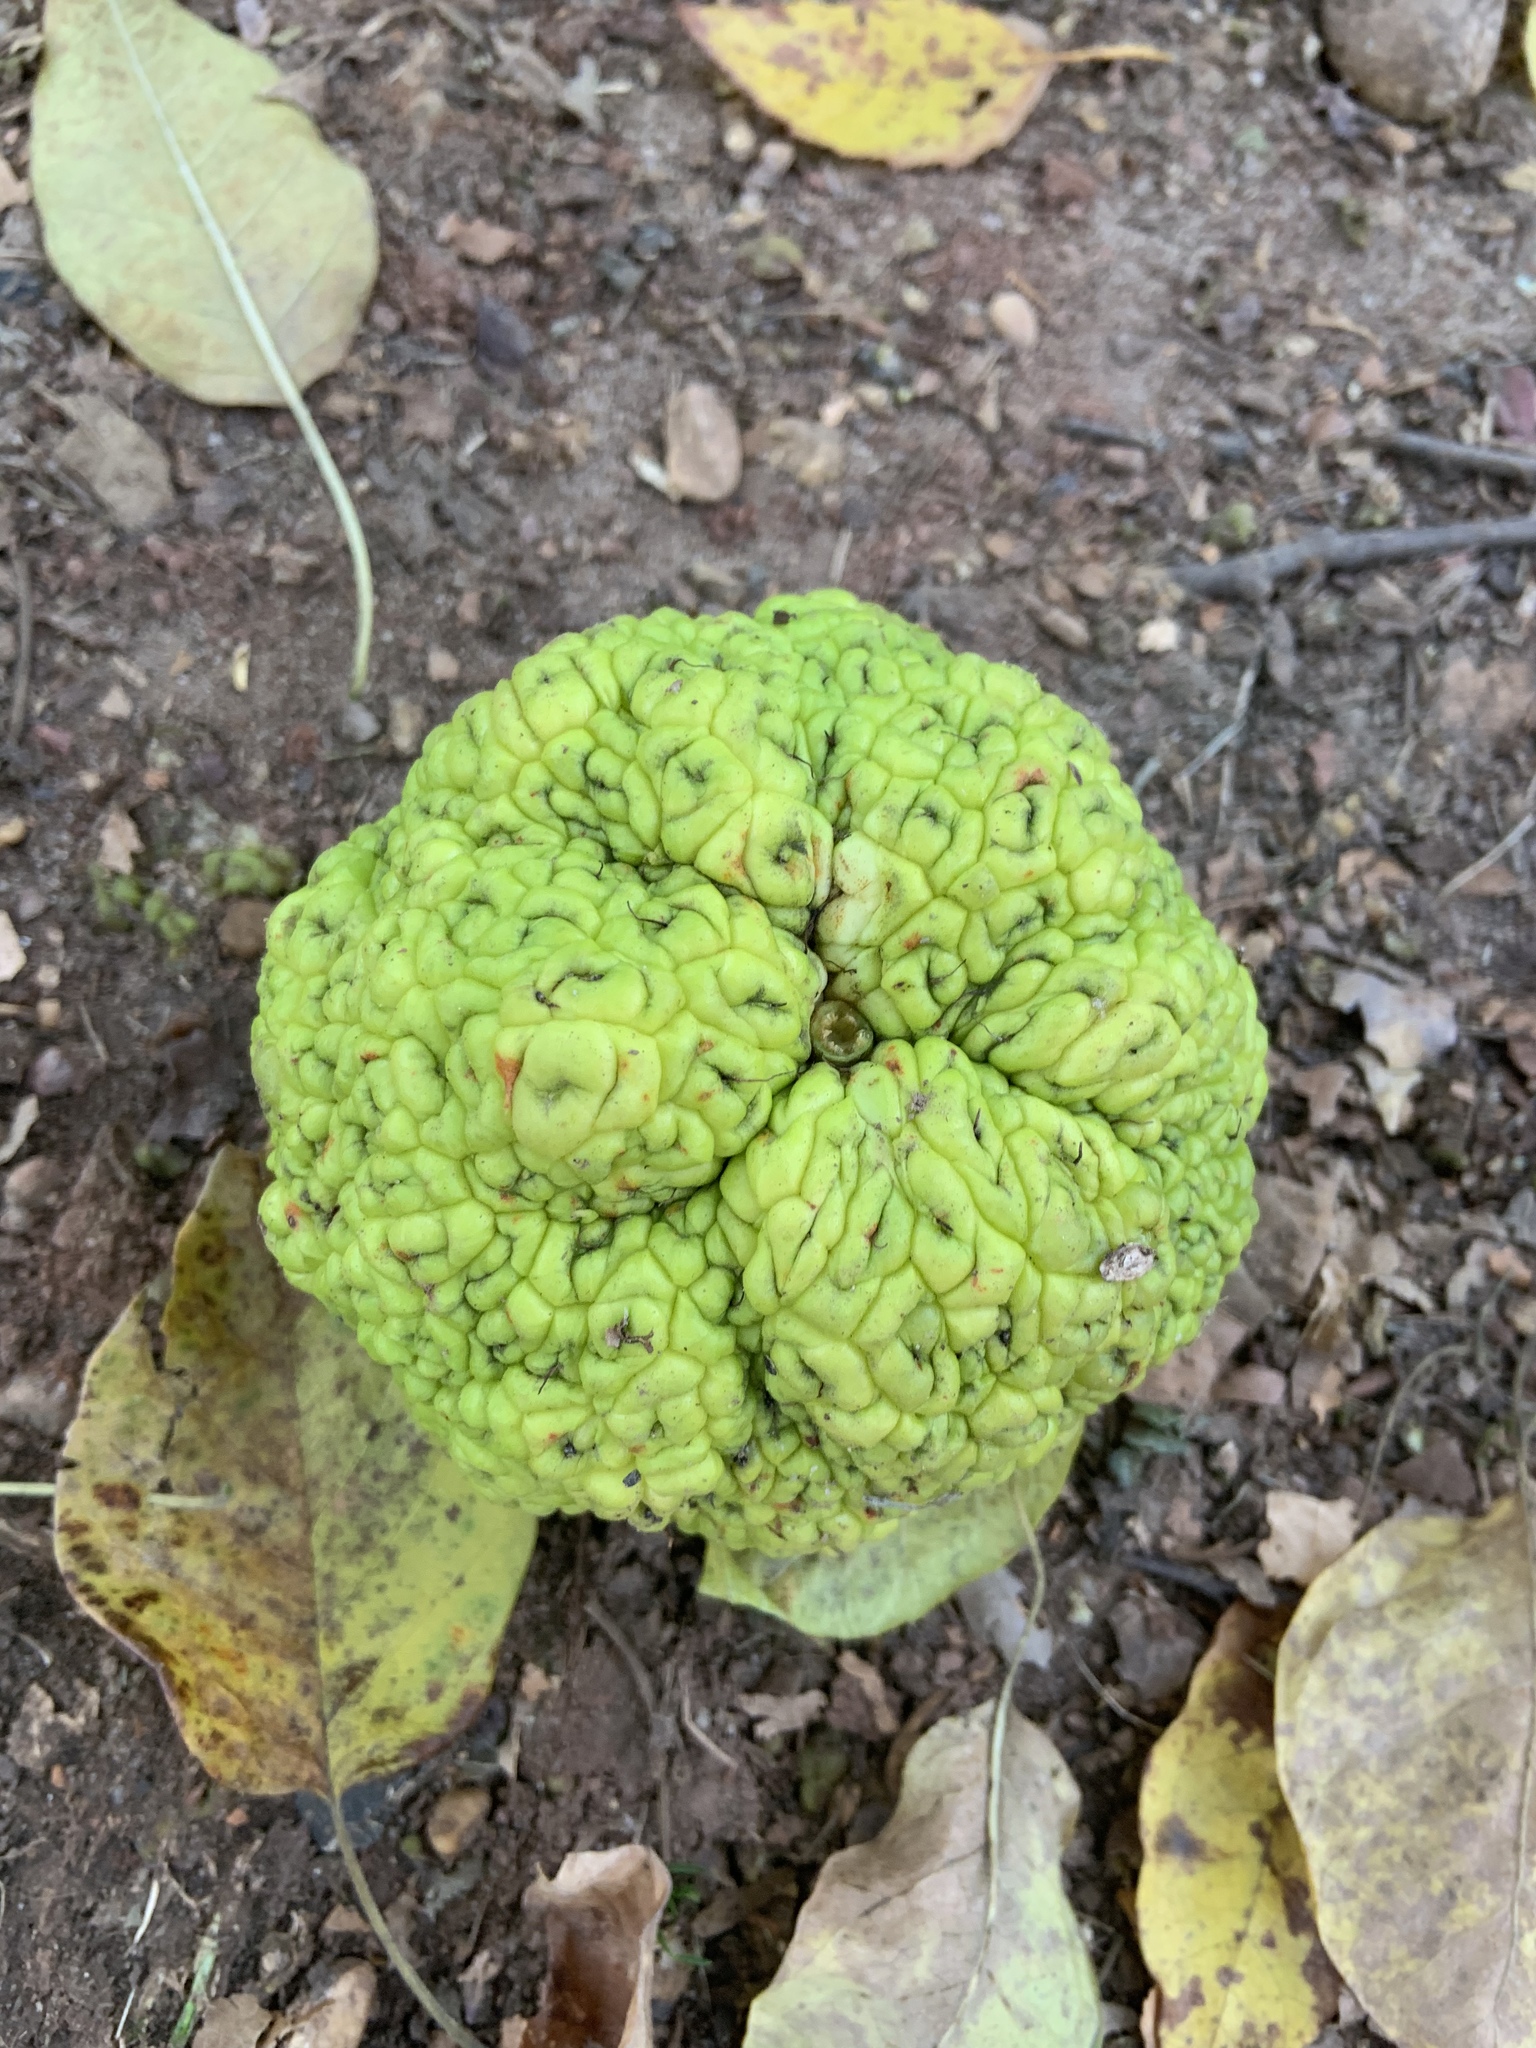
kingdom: Plantae
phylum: Tracheophyta
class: Magnoliopsida
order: Rosales
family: Moraceae
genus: Maclura
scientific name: Maclura pomifera
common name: Osage-orange
